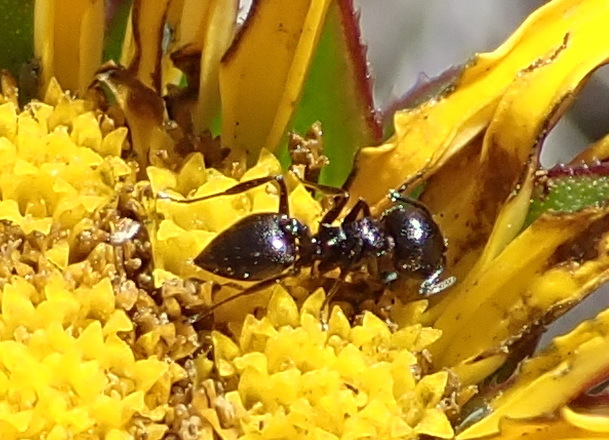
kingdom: Animalia
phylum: Arthropoda
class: Insecta
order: Hymenoptera
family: Formicidae
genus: Crematogaster
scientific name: Crematogaster peringueyi
